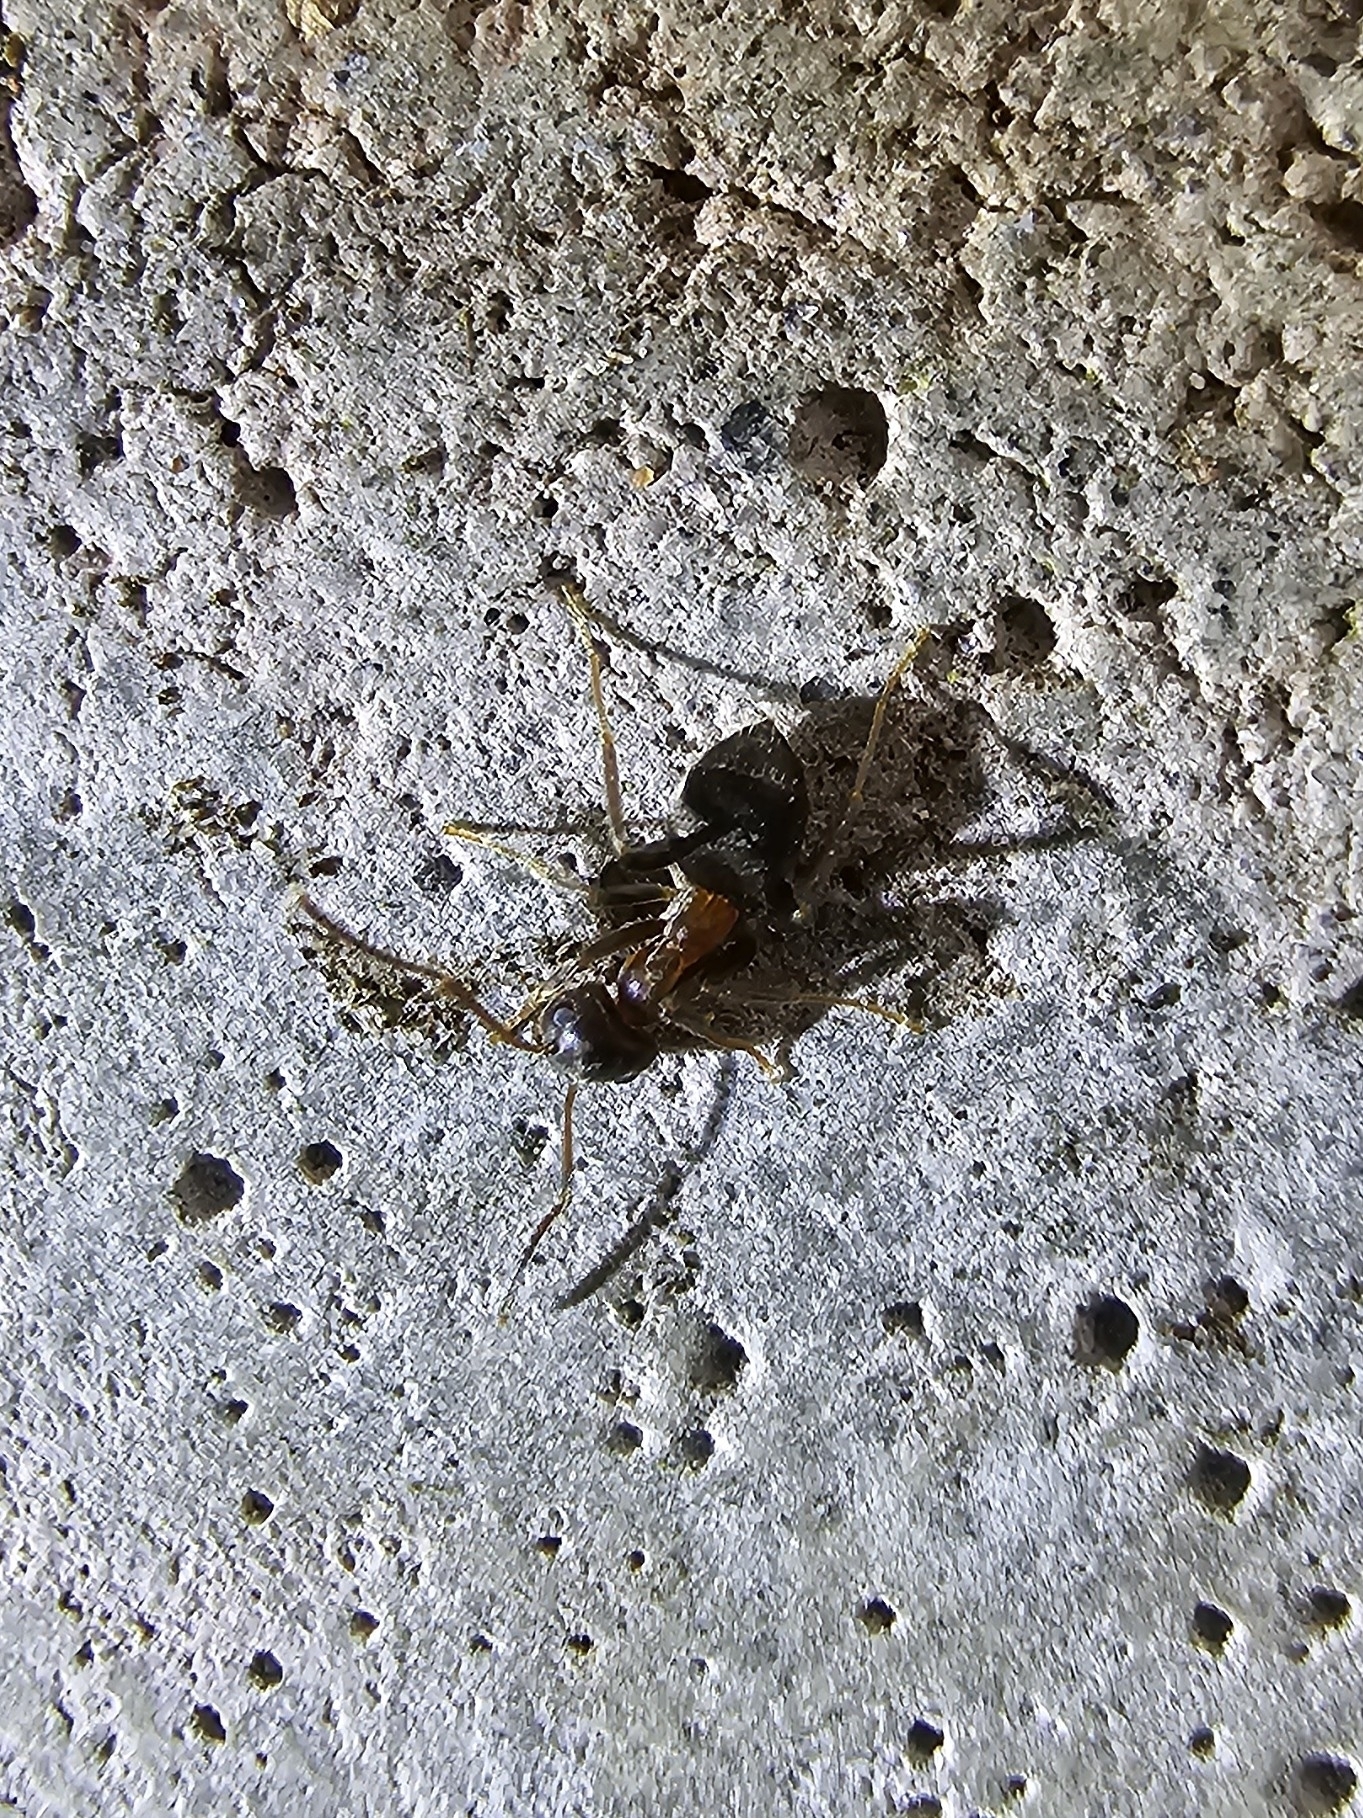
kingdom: Animalia
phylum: Arthropoda
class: Insecta
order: Hymenoptera
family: Formicidae
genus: Lasius
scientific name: Lasius emarginatus
